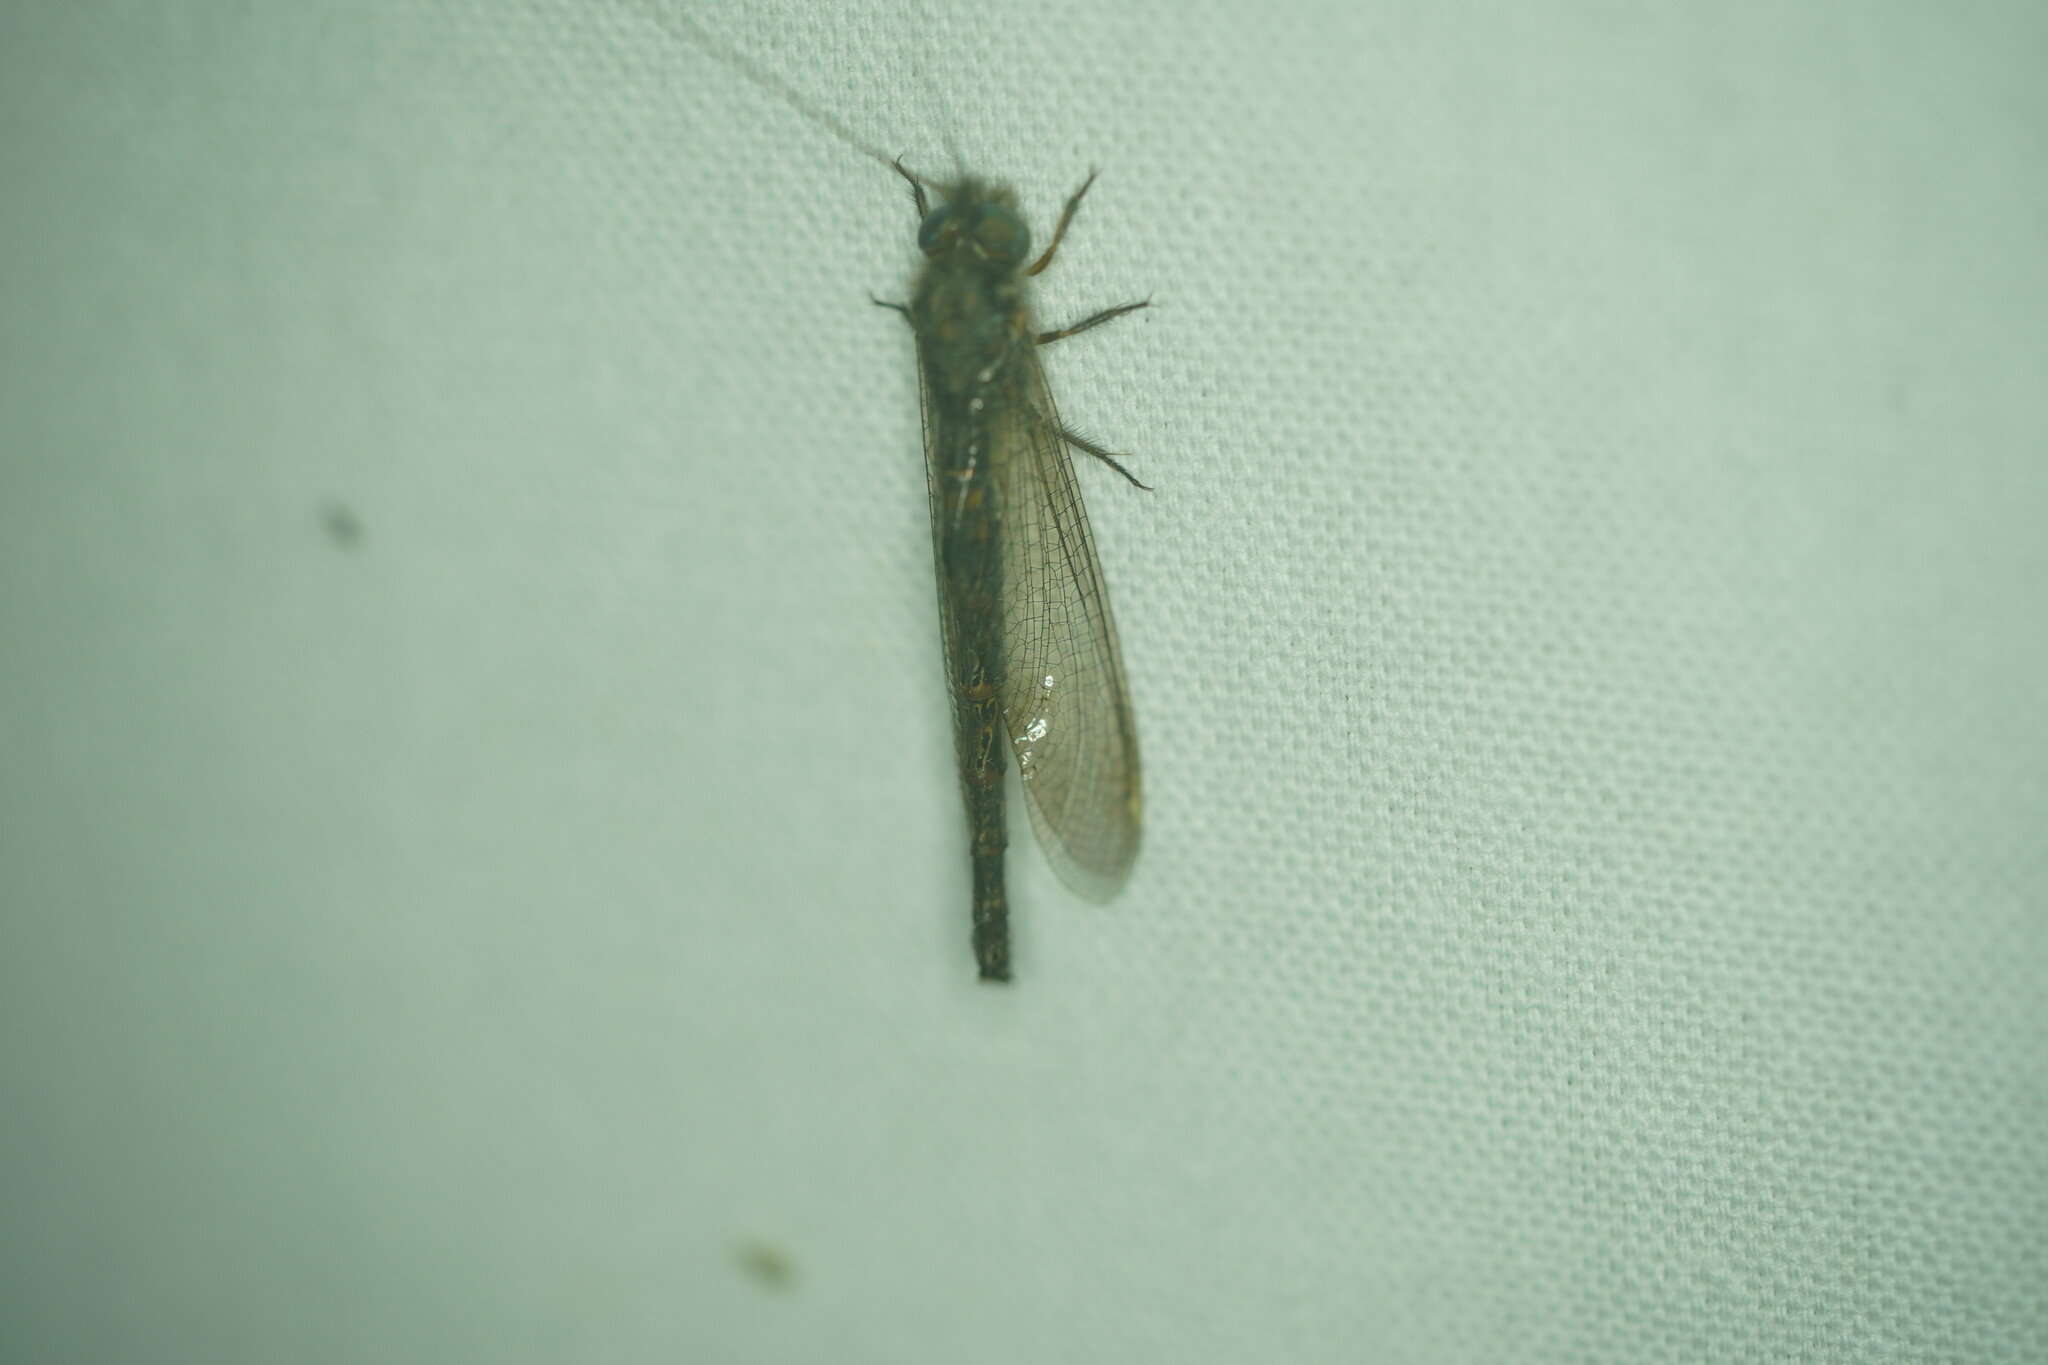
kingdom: Animalia
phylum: Arthropoda
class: Insecta
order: Neuroptera
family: Ascalaphidae
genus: Ululodes
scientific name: Ululodes quadripunctatus
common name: Four-spotted owlfly
